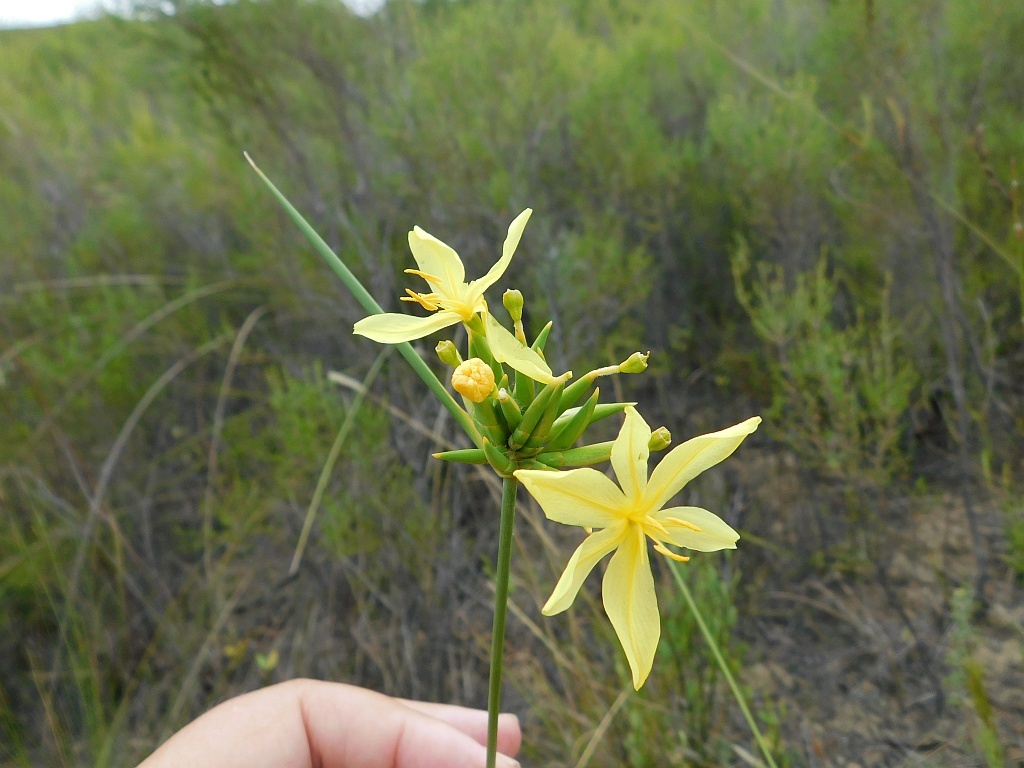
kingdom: Plantae
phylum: Tracheophyta
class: Liliopsida
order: Asparagales
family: Iridaceae
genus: Bobartia
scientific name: Bobartia indica
